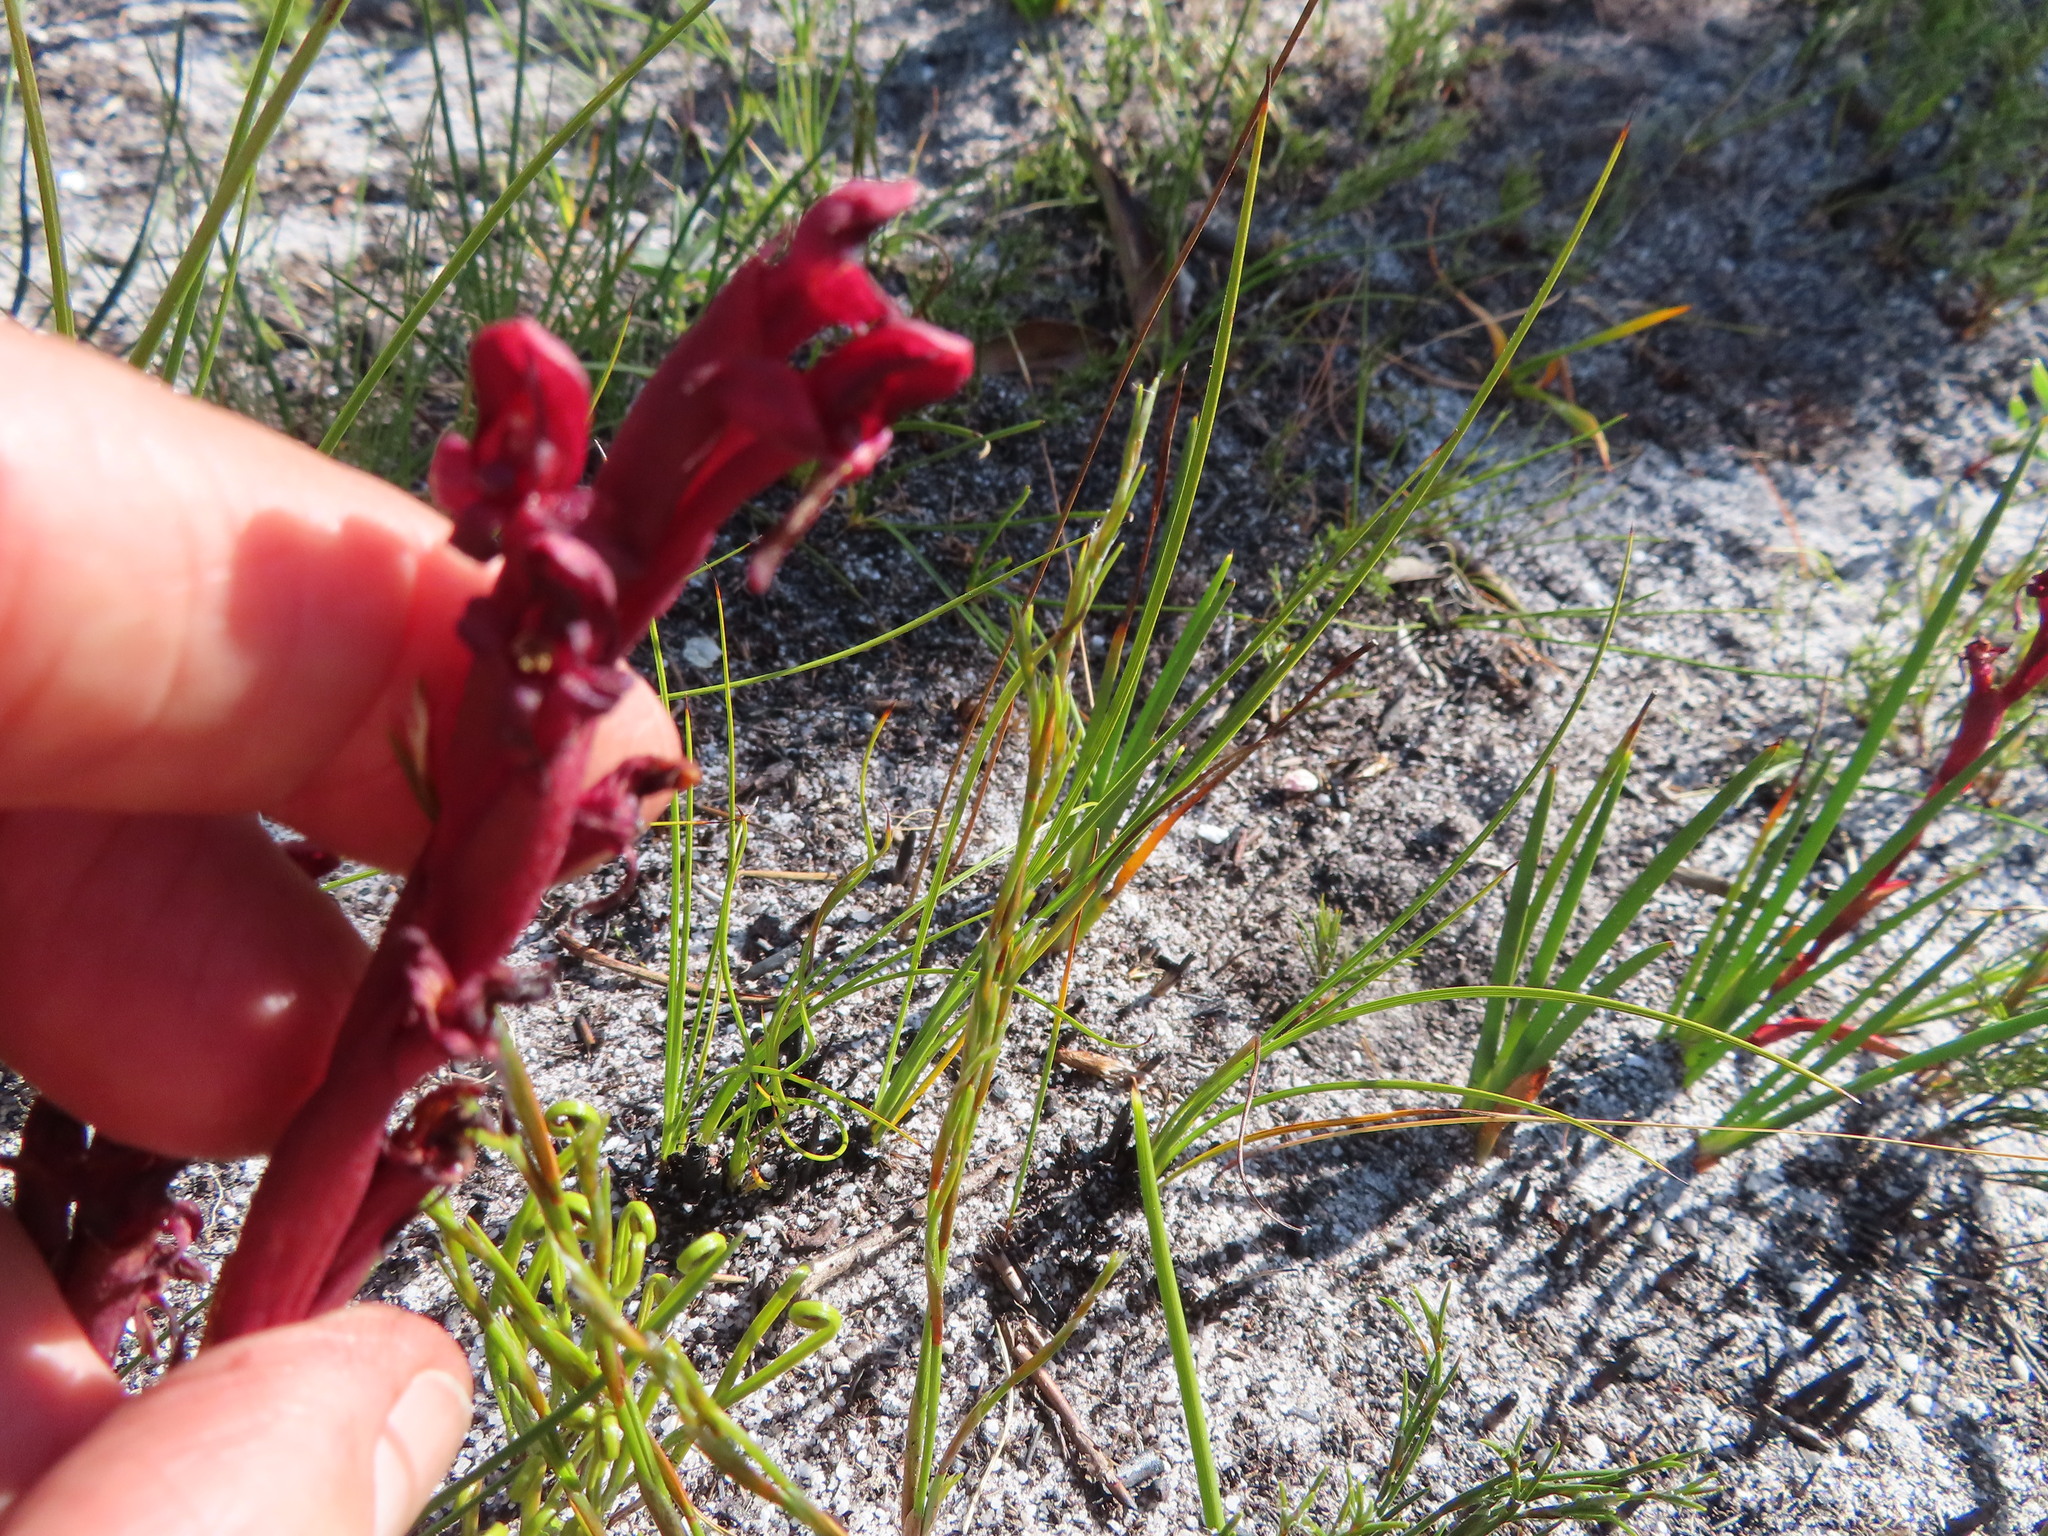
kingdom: Plantae
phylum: Tracheophyta
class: Liliopsida
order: Asparagales
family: Orchidaceae
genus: Disa
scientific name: Disa ophrydea
